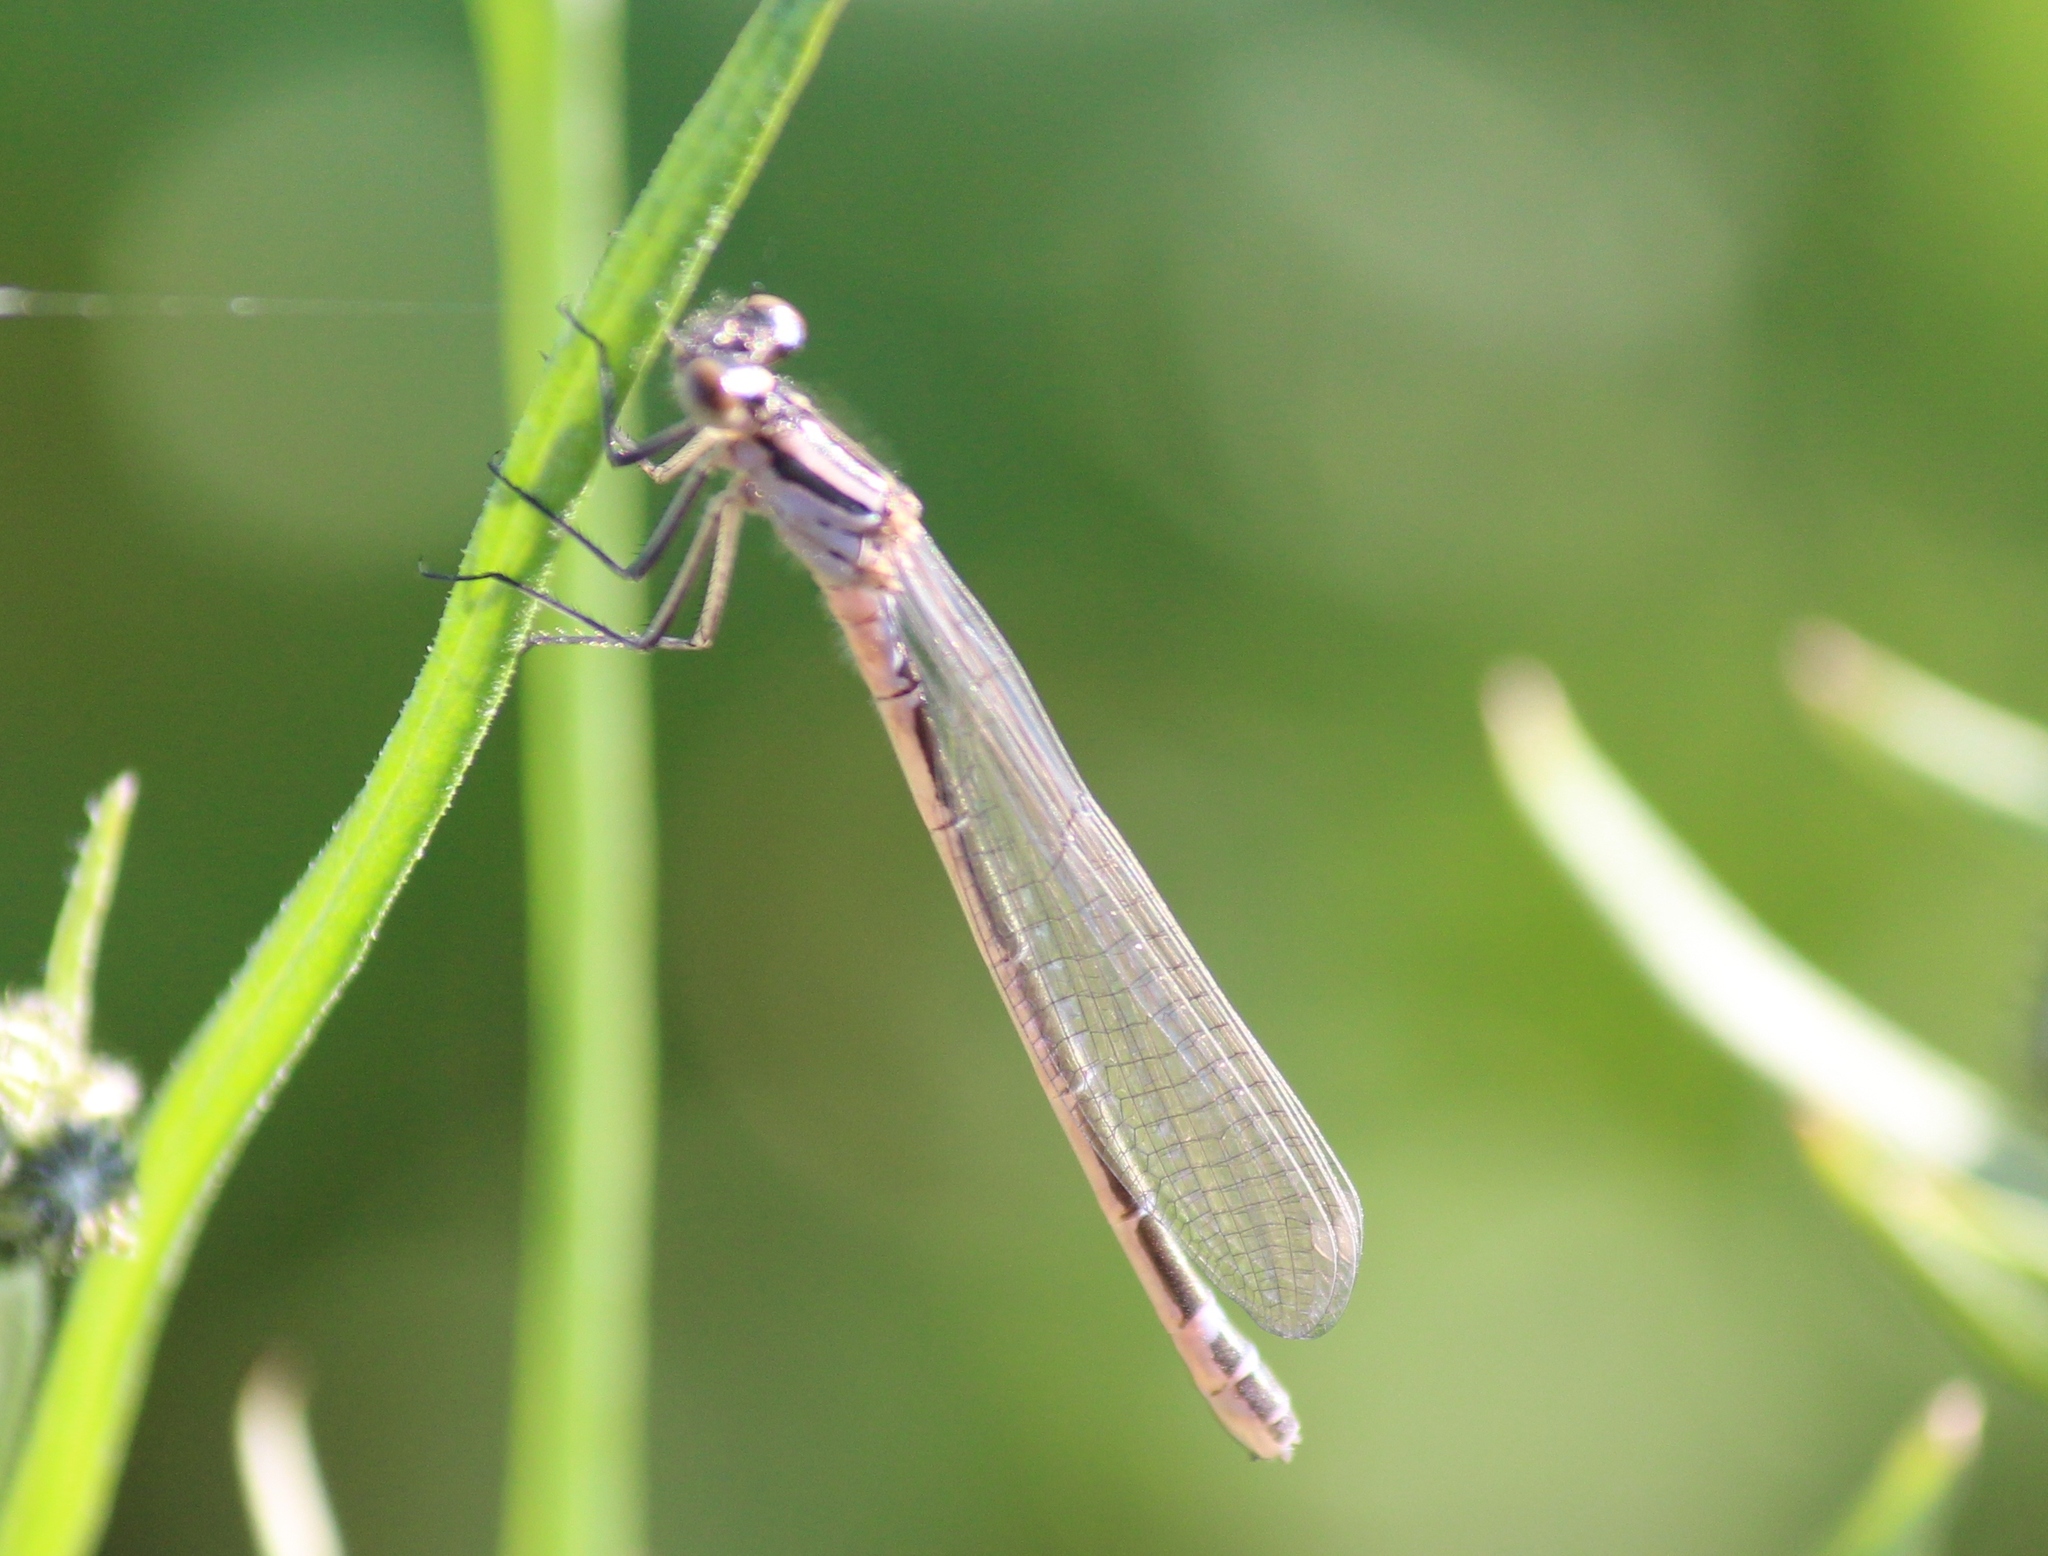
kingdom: Animalia
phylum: Arthropoda
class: Insecta
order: Odonata
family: Coenagrionidae
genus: Coenagrion
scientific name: Coenagrion lunulatum
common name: Irish damselfly
